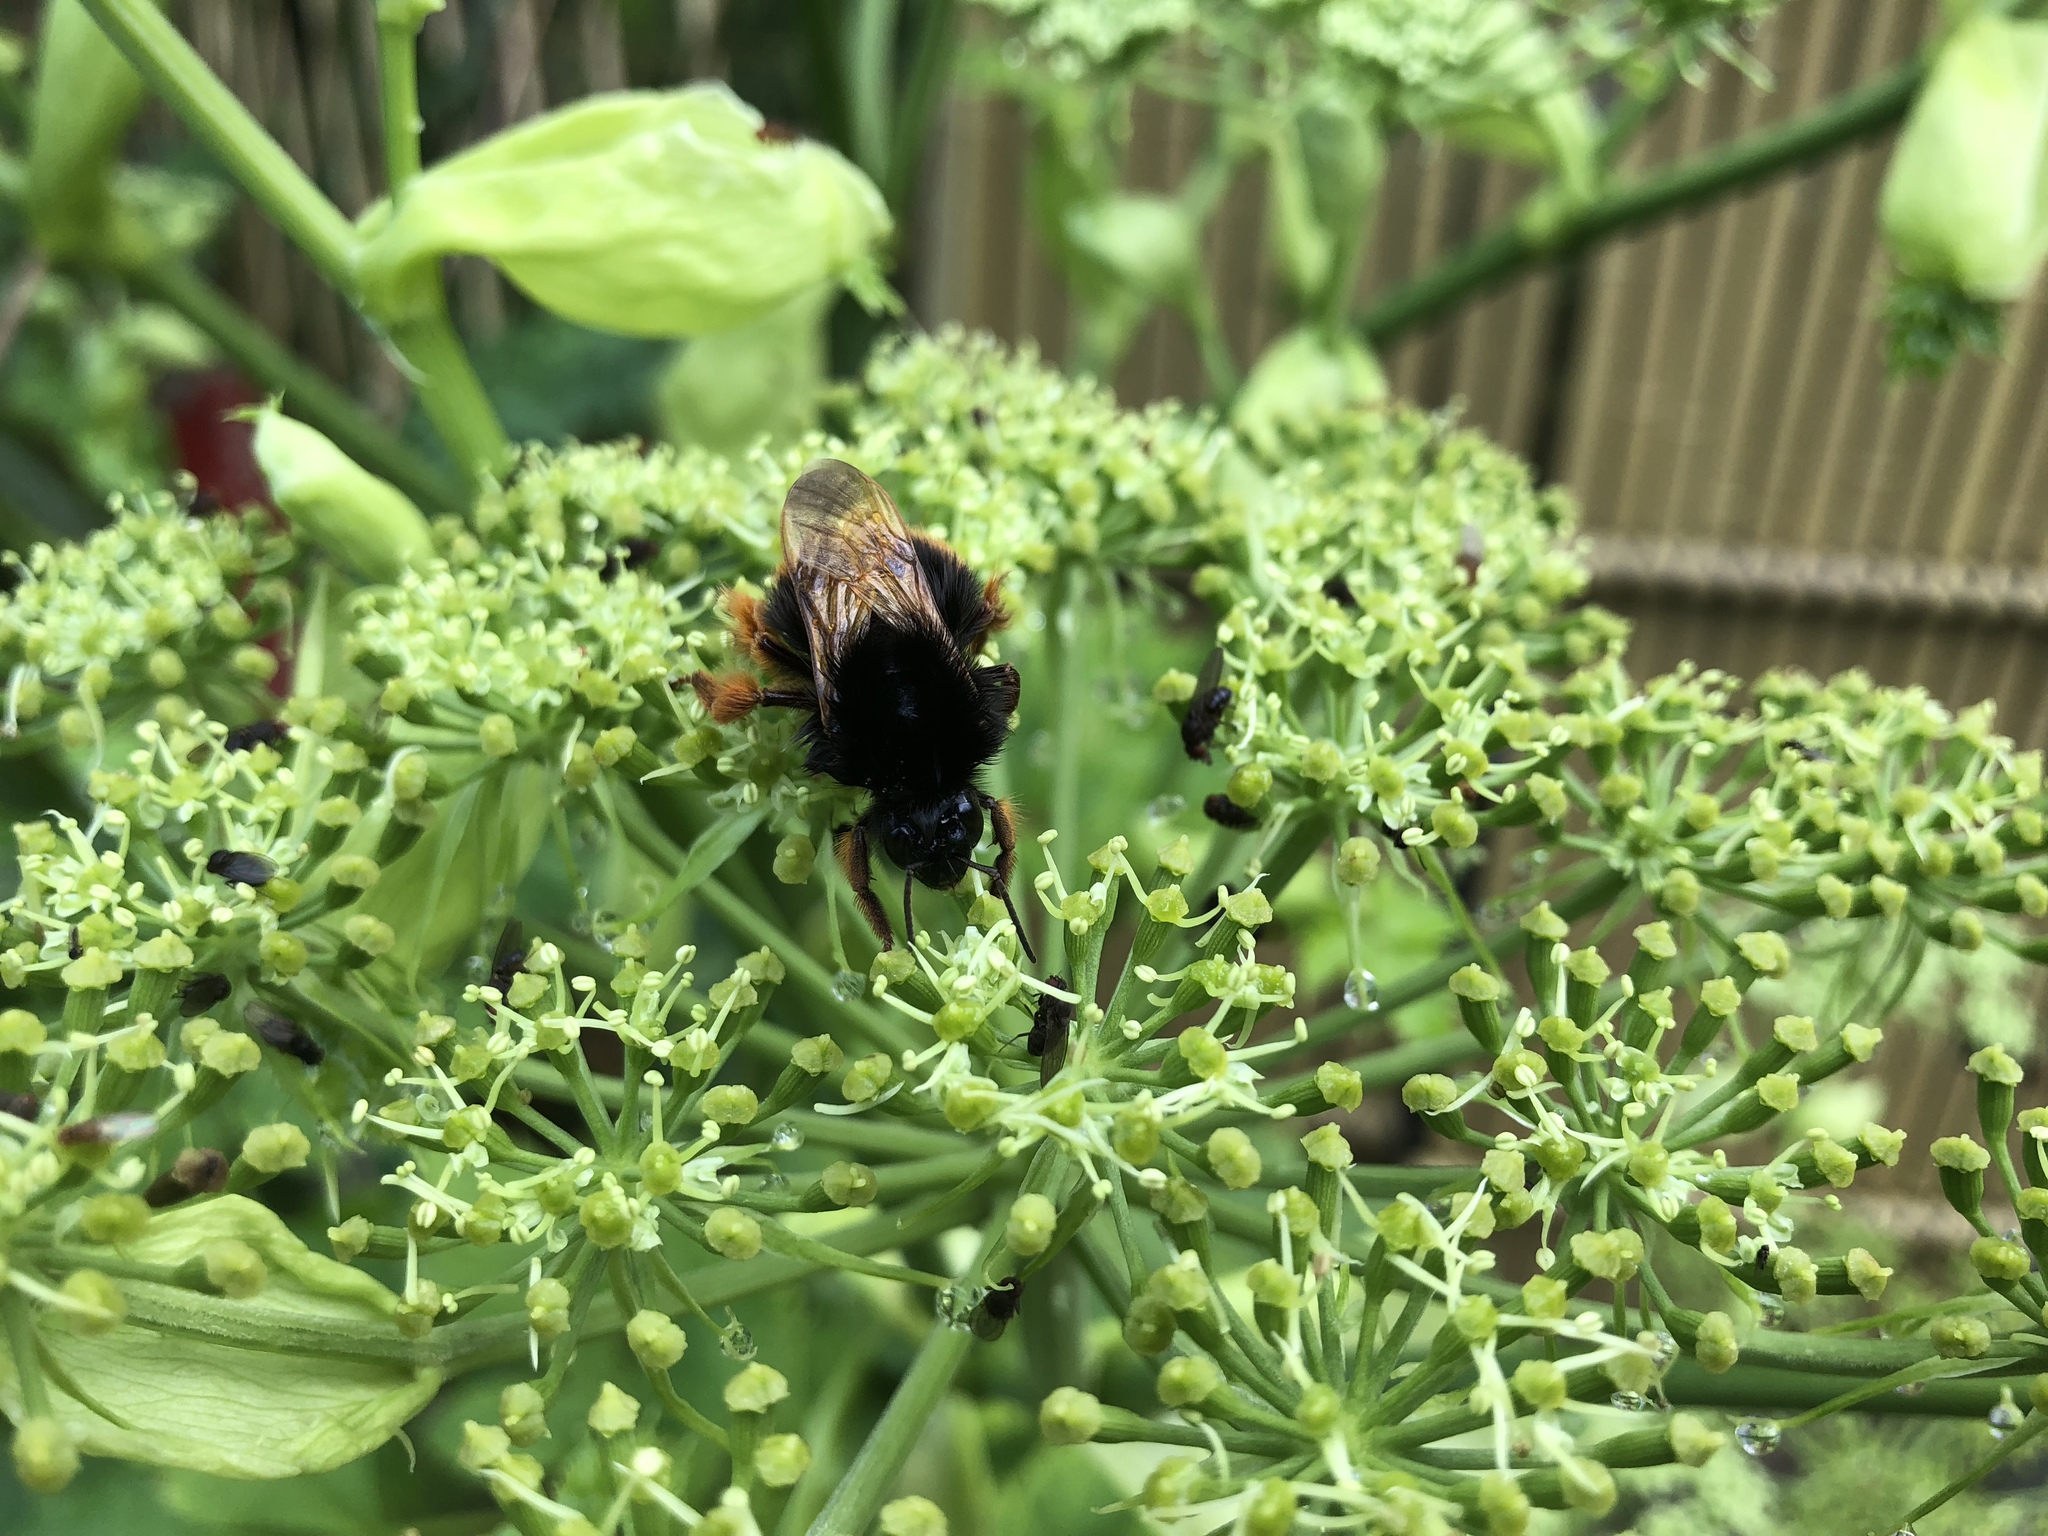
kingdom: Animalia
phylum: Arthropoda
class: Insecta
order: Hymenoptera
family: Apidae
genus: Bombus
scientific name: Bombus eximius
